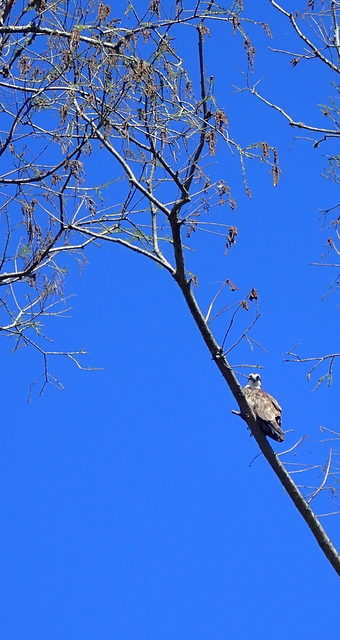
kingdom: Animalia
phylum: Chordata
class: Aves
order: Accipitriformes
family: Pandionidae
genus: Pandion
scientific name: Pandion haliaetus
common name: Osprey
